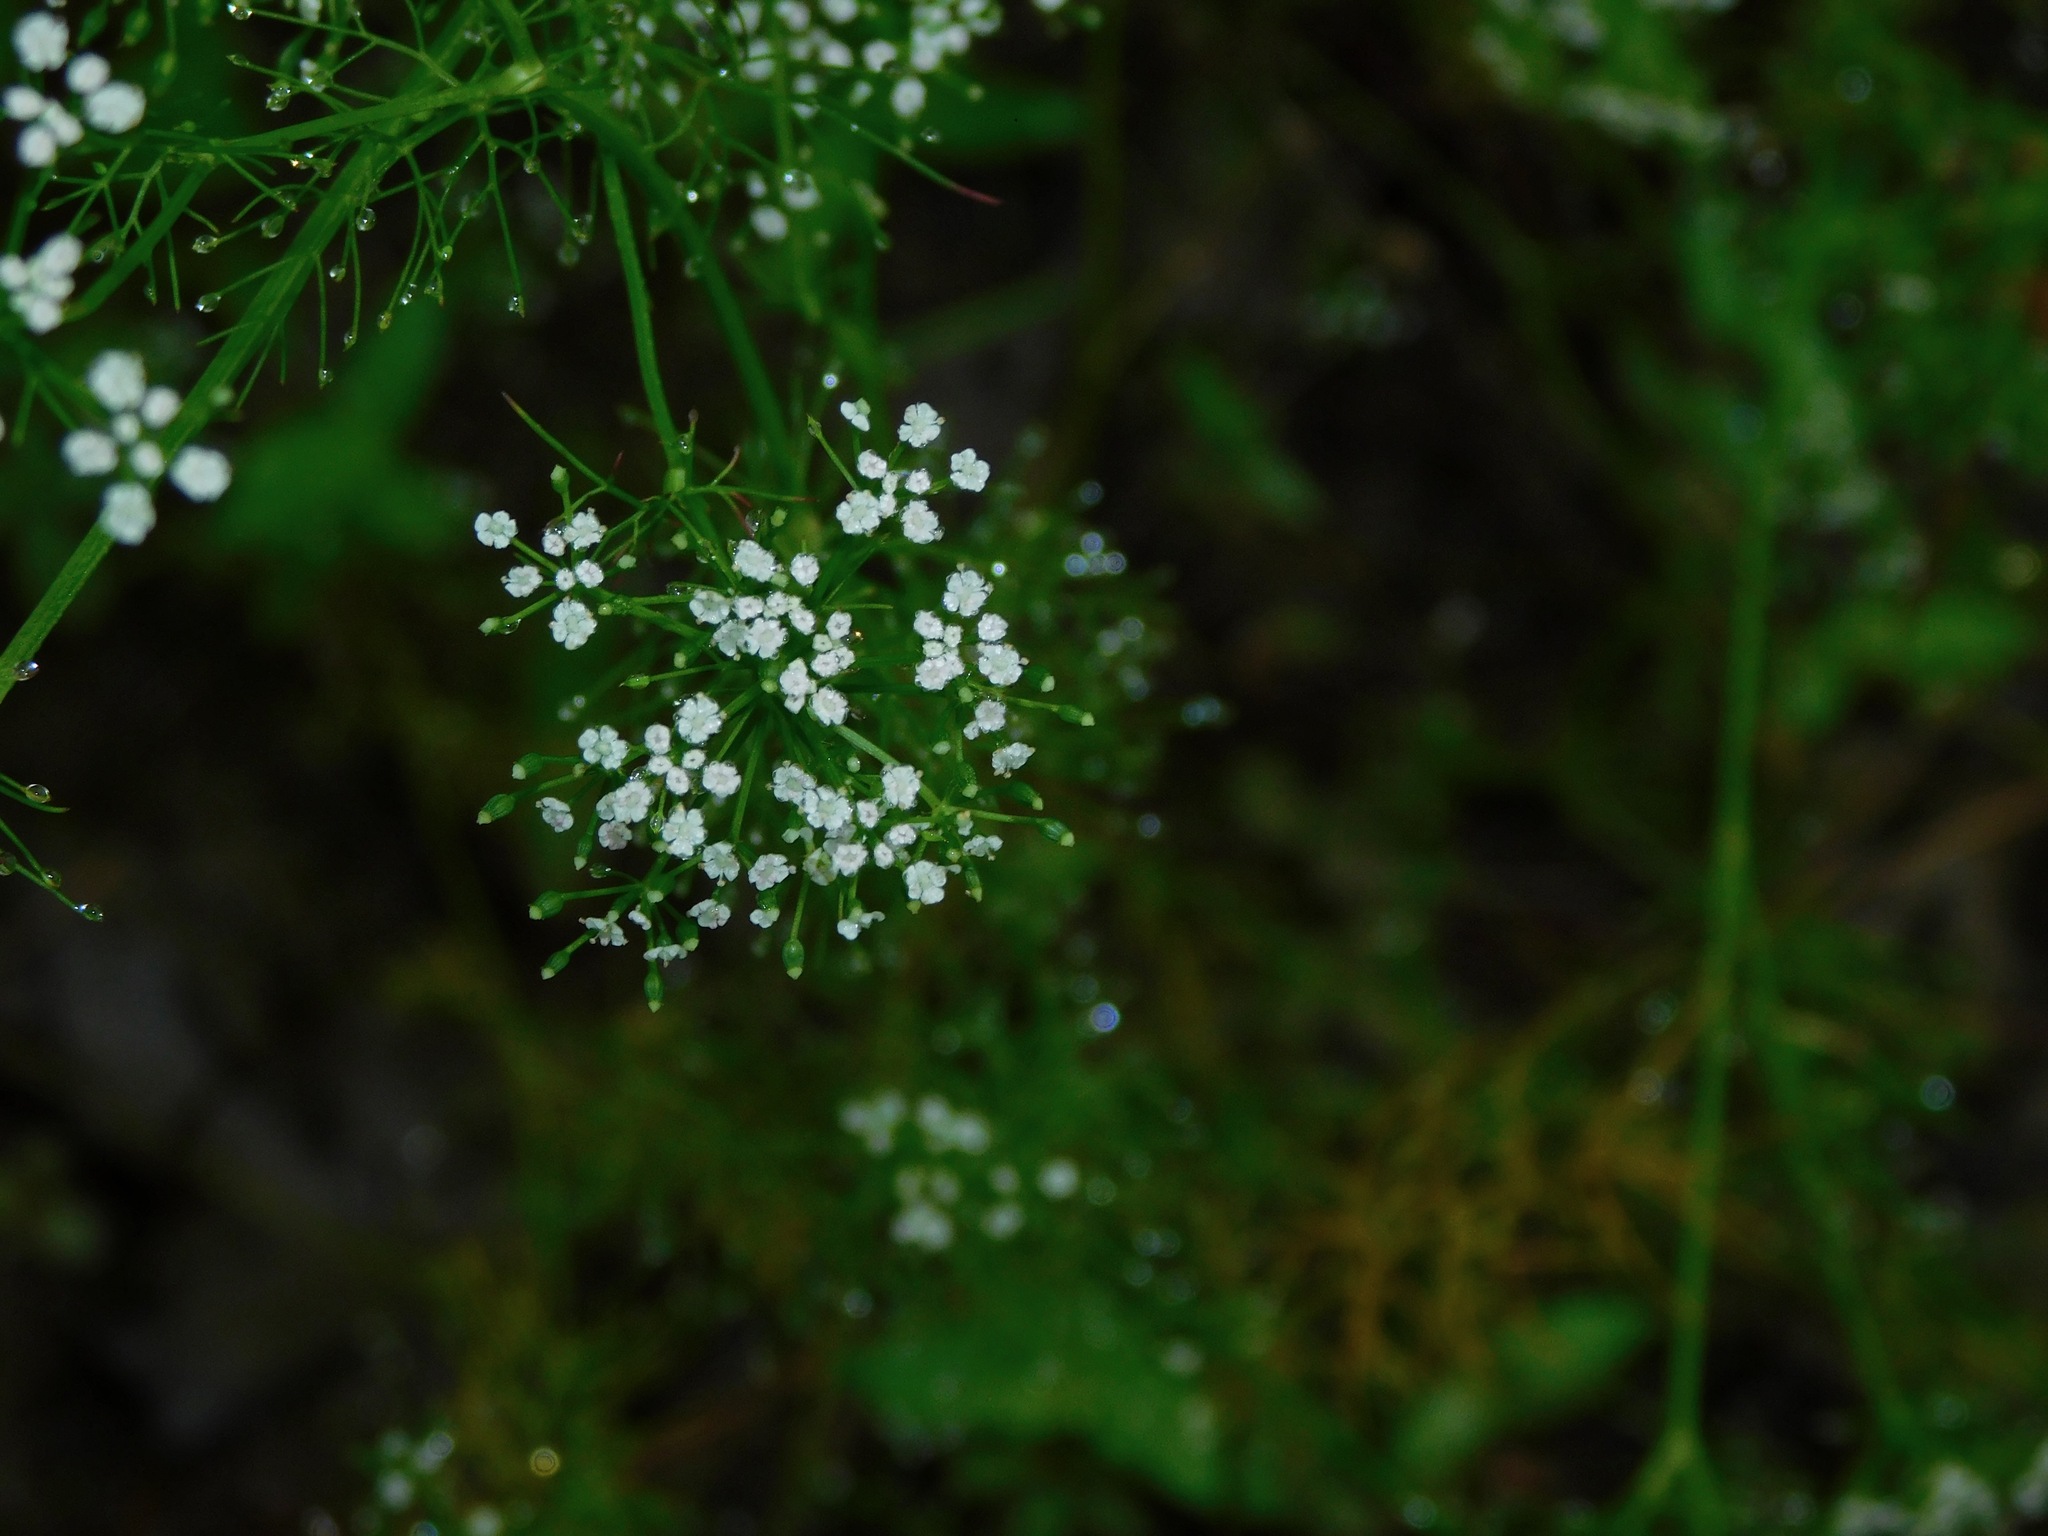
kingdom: Plantae
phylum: Tracheophyta
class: Magnoliopsida
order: Apiales
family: Apiaceae
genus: Ptilimnium
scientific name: Ptilimnium capillaceum
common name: Herbwilliam
